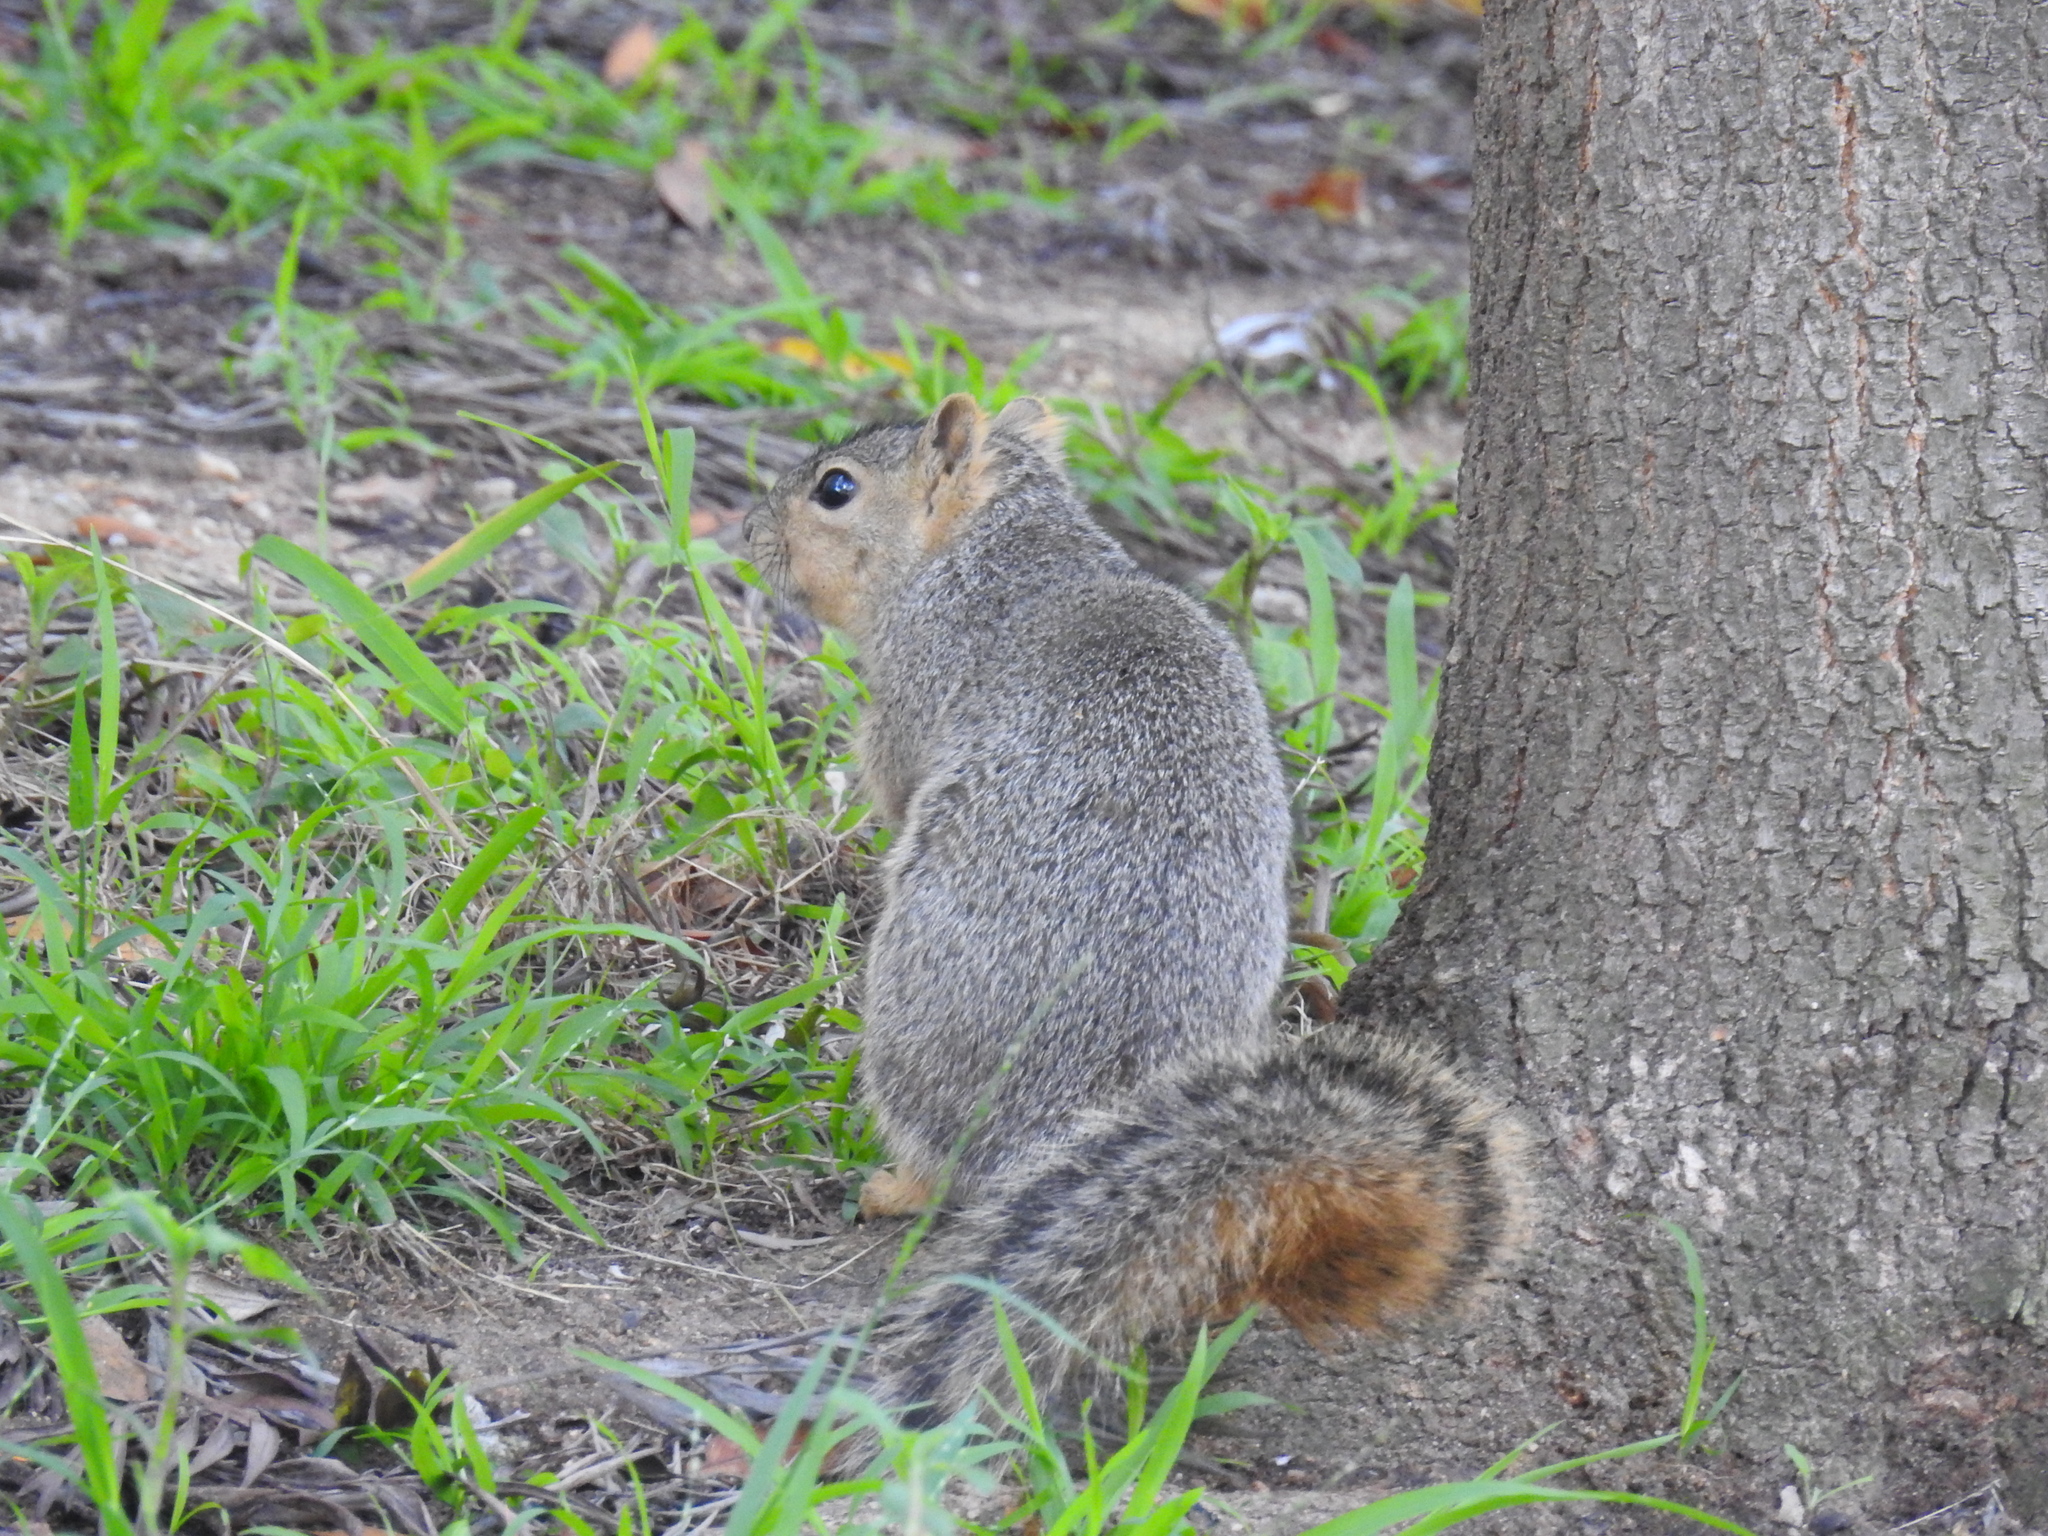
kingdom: Animalia
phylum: Chordata
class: Mammalia
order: Rodentia
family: Sciuridae
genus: Sciurus
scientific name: Sciurus niger
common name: Fox squirrel
